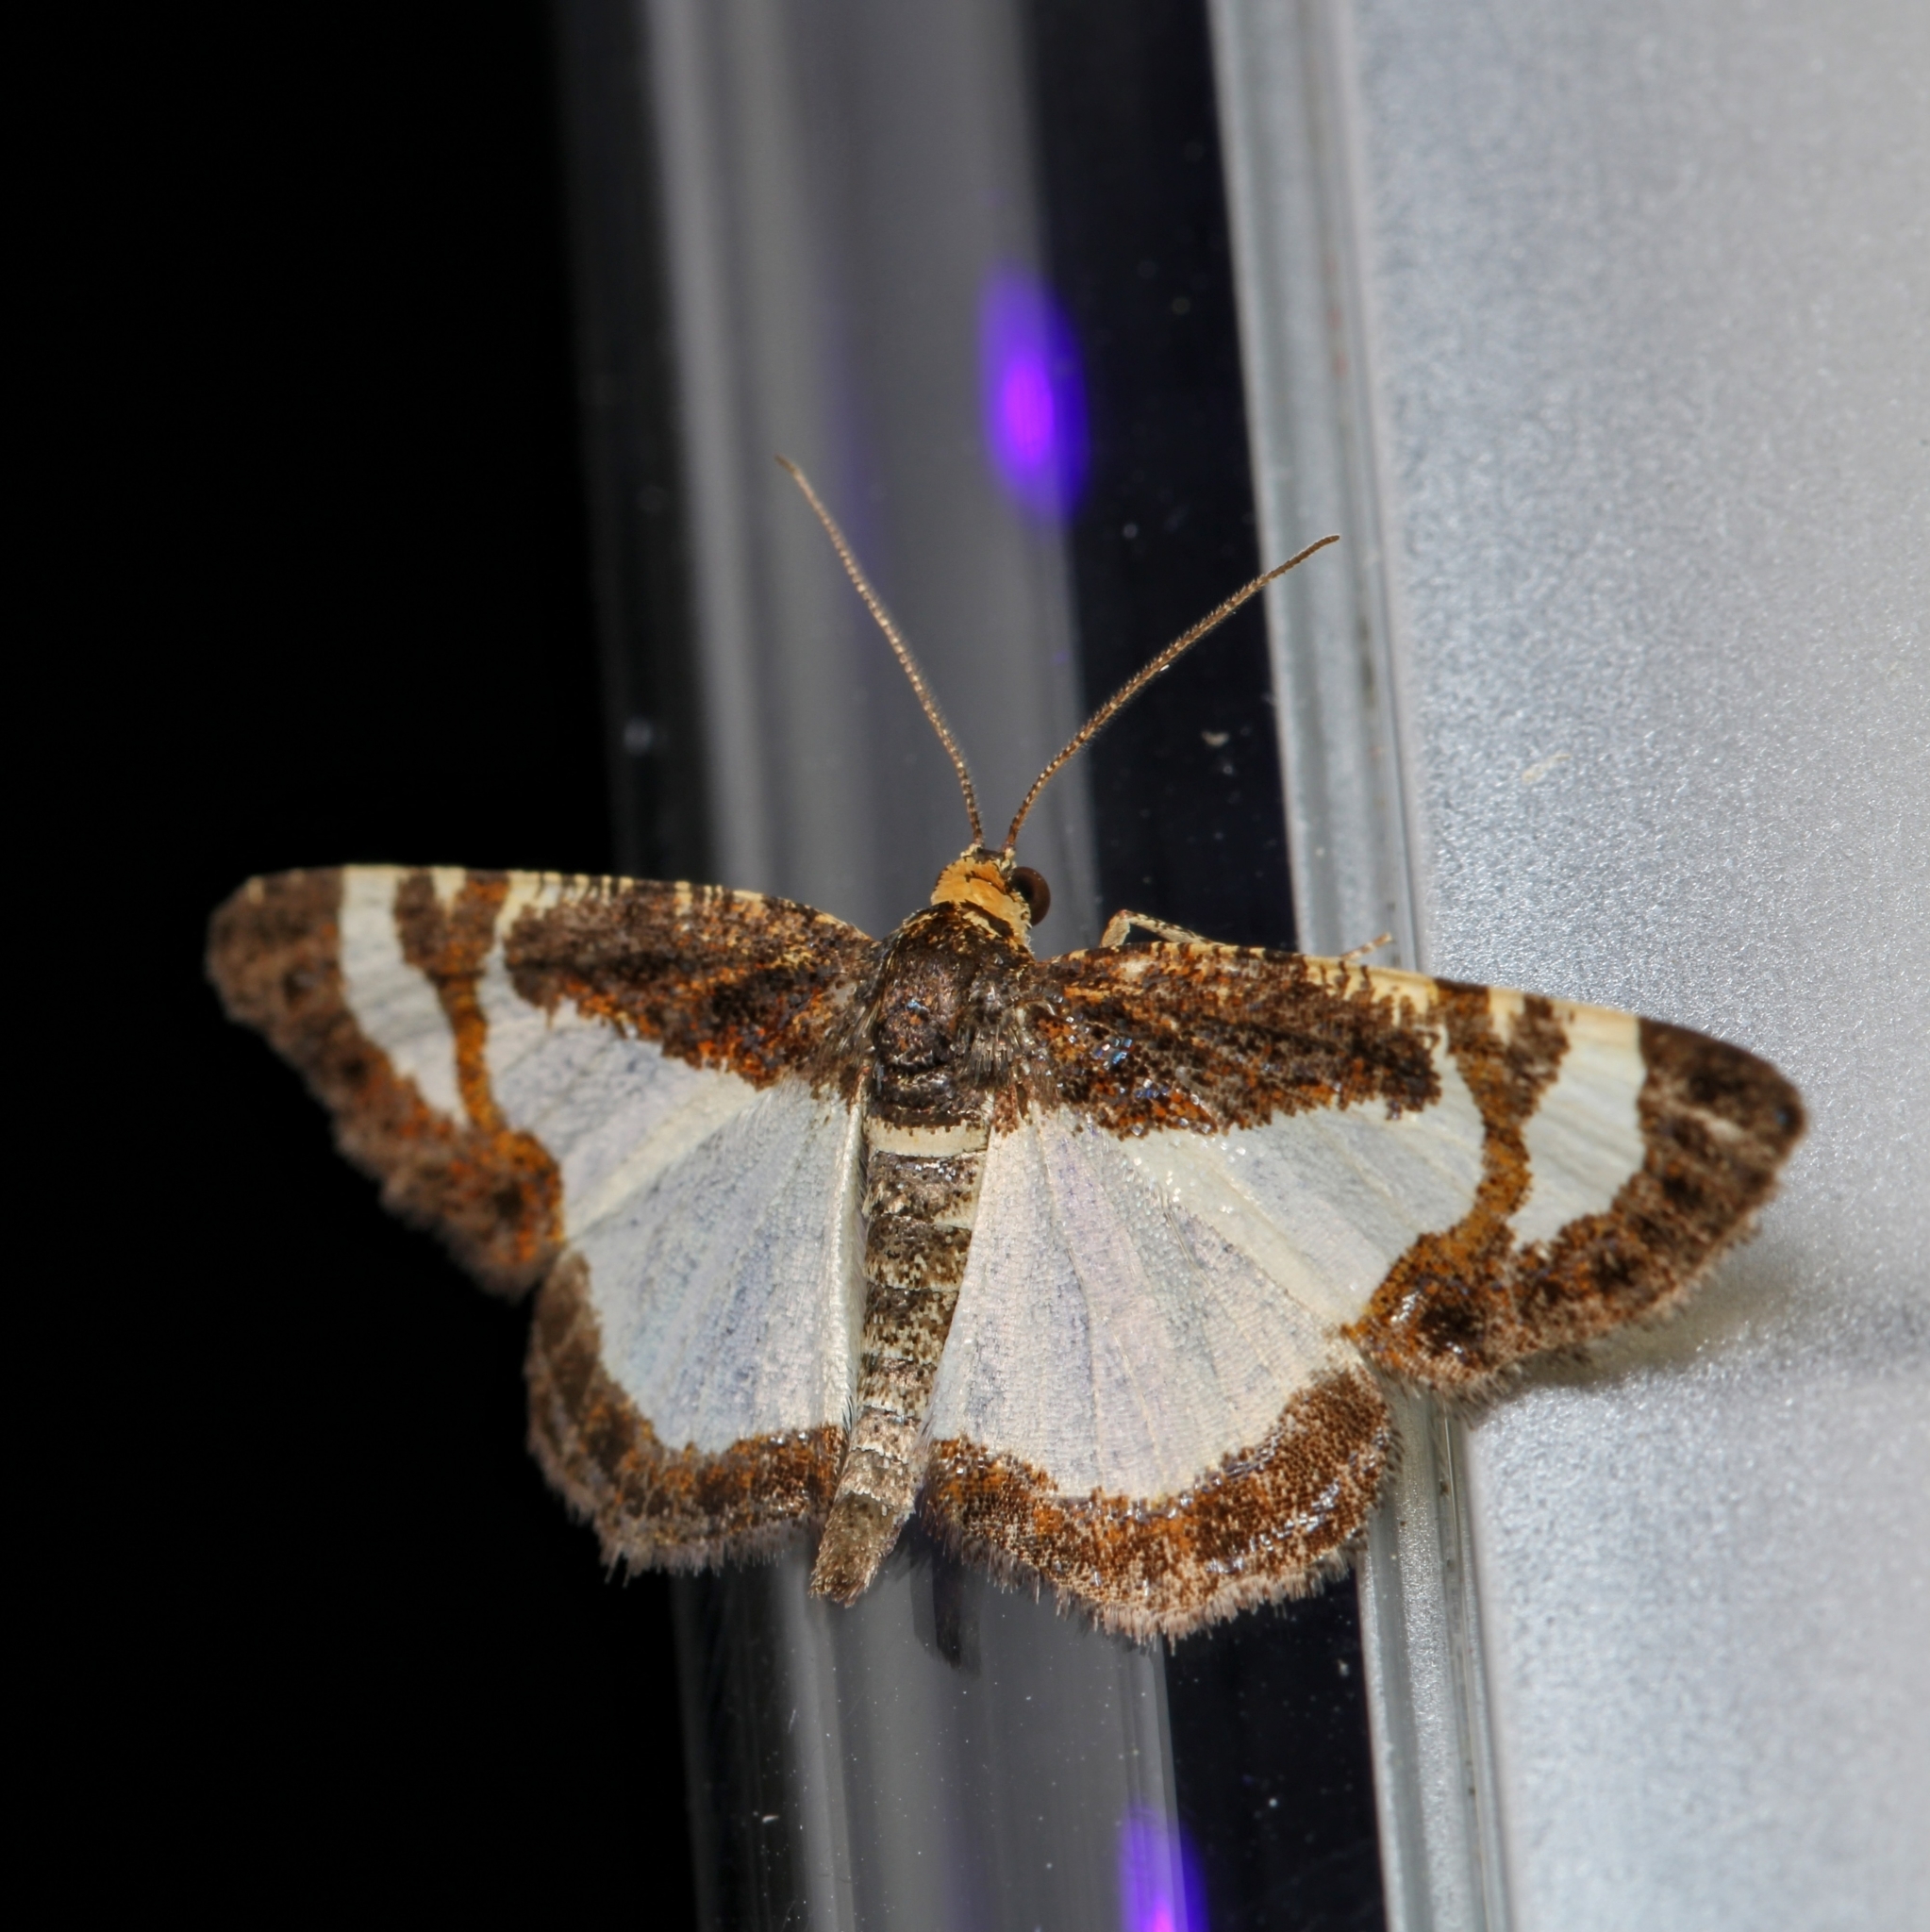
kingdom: Animalia
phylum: Arthropoda
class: Insecta
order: Lepidoptera
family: Geometridae
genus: Heliomata
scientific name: Heliomata cycladata
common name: Common spring moth
